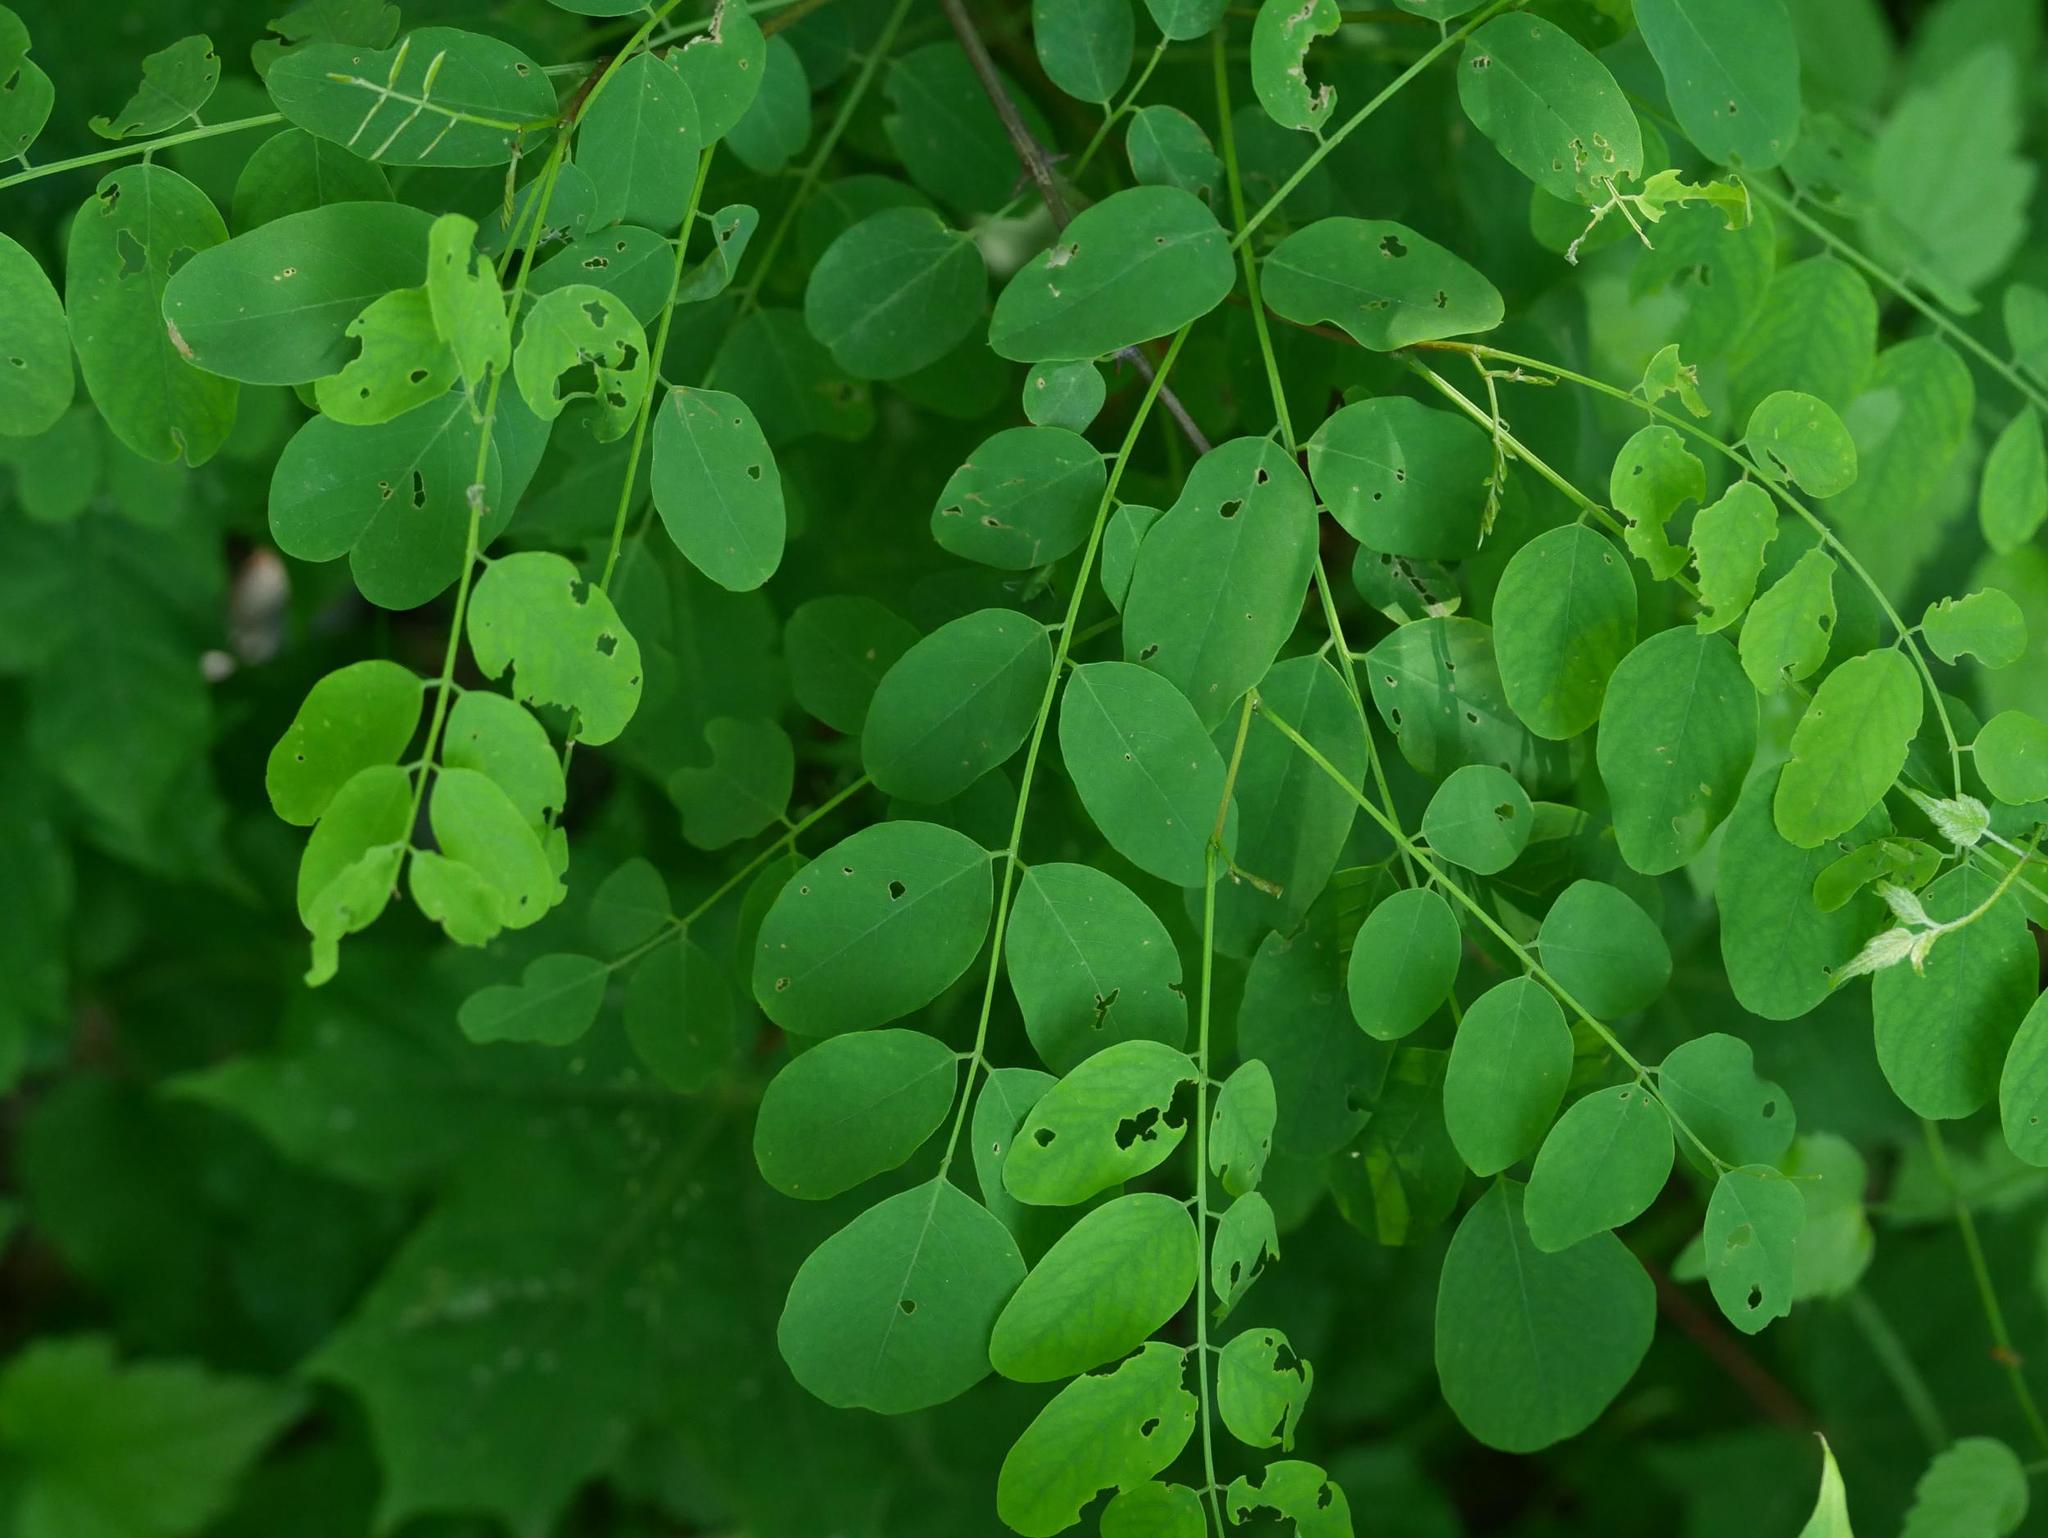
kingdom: Plantae
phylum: Tracheophyta
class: Magnoliopsida
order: Fabales
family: Fabaceae
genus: Robinia
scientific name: Robinia pseudoacacia
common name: Black locust
